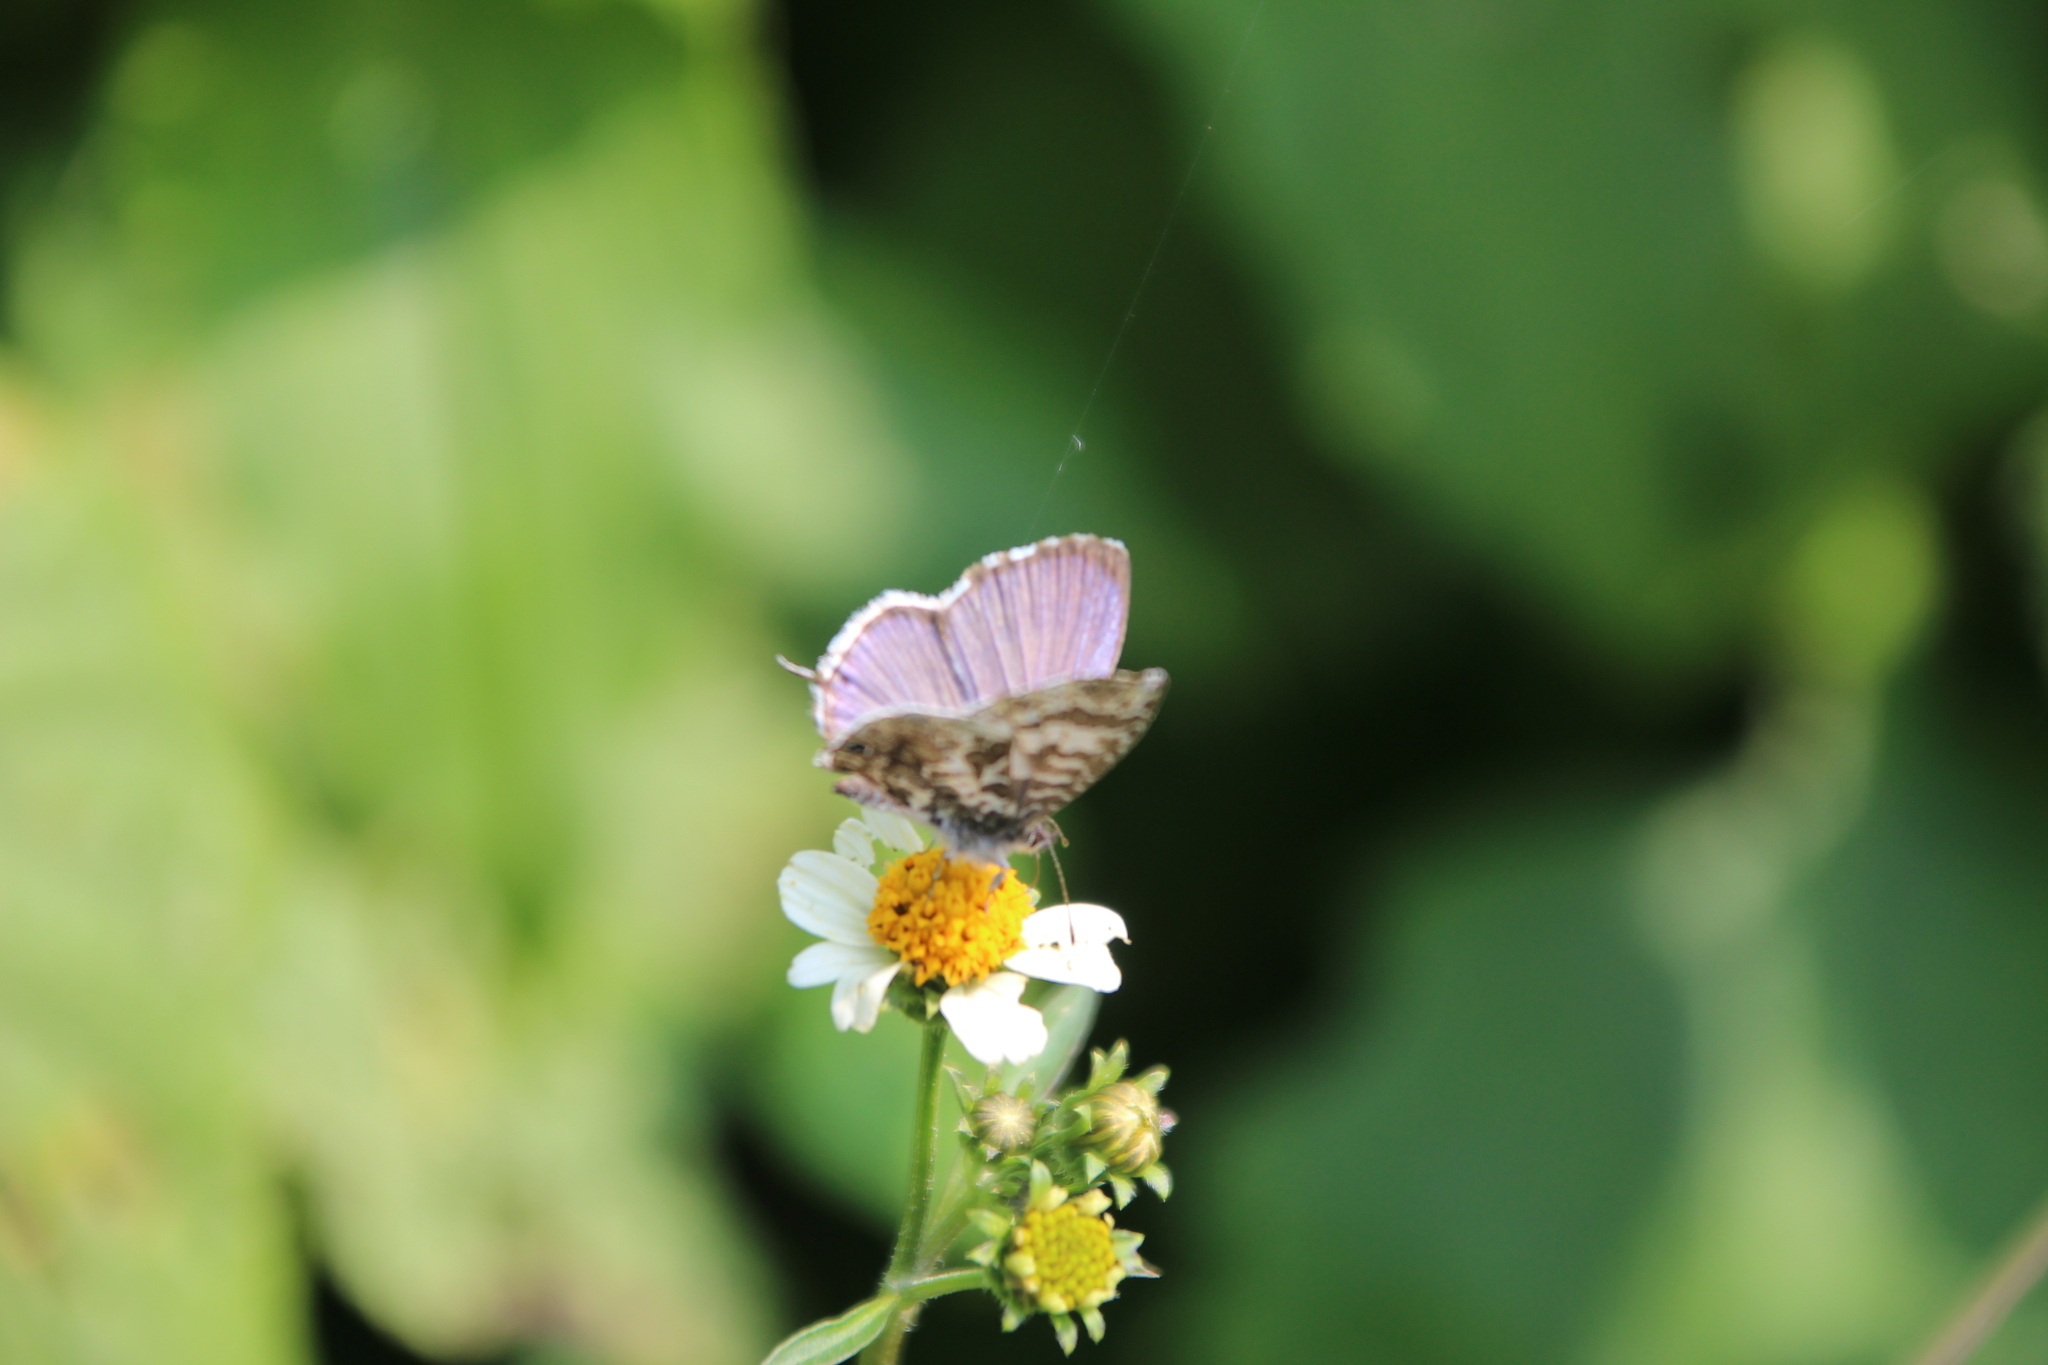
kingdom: Animalia
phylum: Arthropoda
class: Insecta
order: Lepidoptera
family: Lycaenidae
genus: Cacyreus
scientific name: Cacyreus lingeus
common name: Bush bronze
